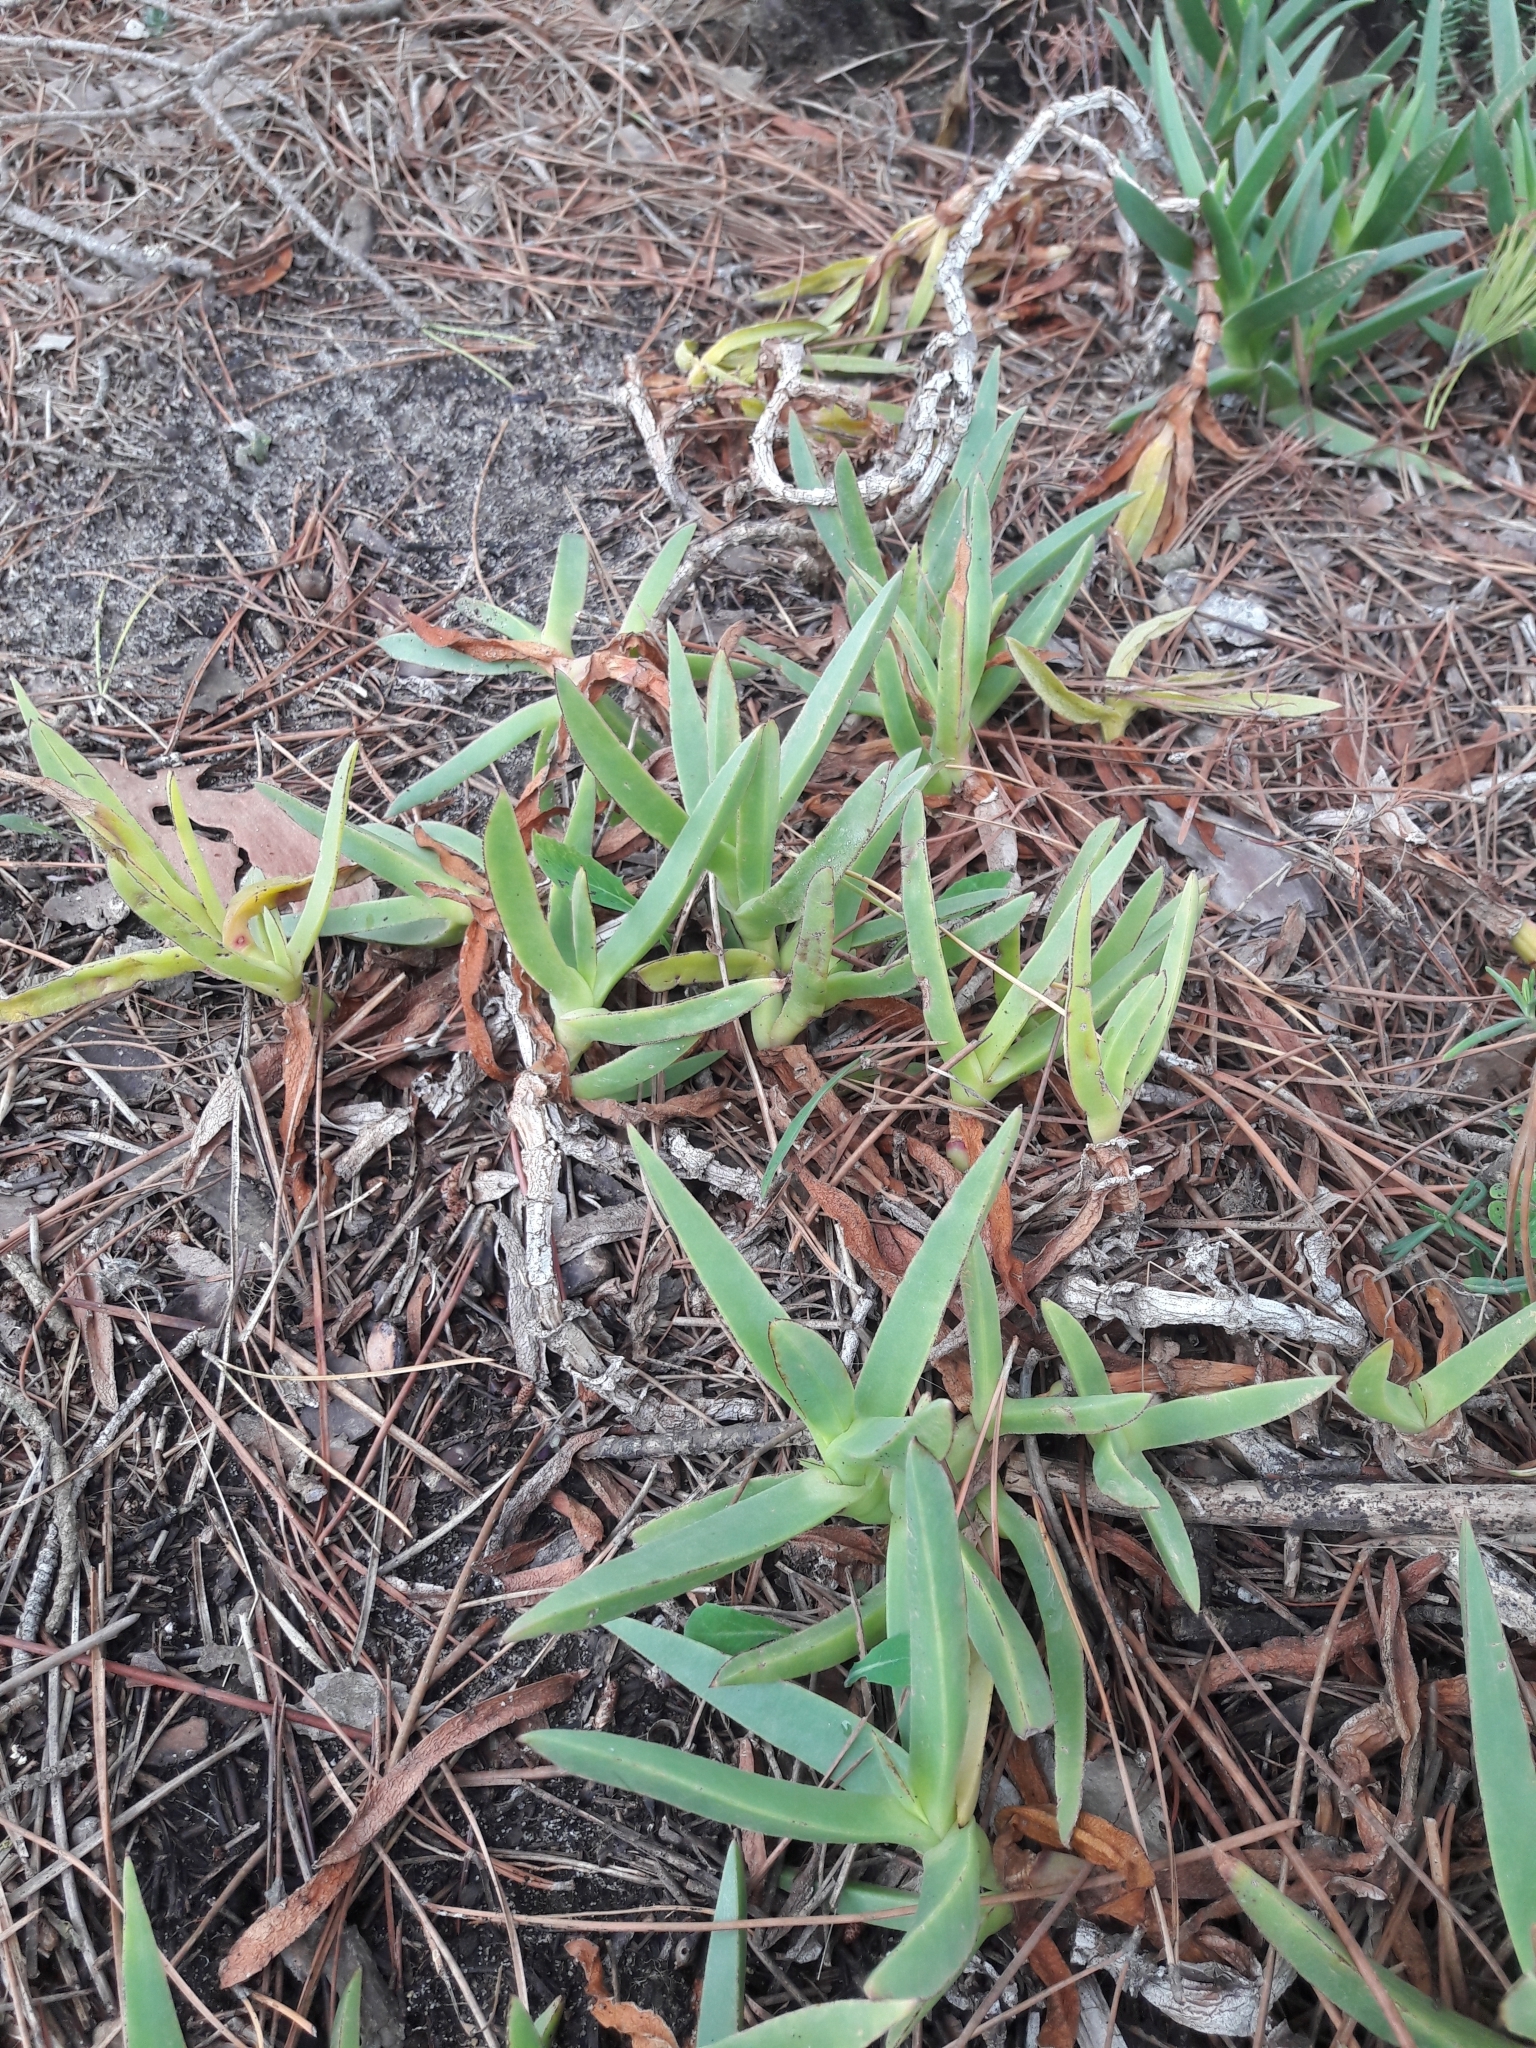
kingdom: Plantae
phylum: Tracheophyta
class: Magnoliopsida
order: Caryophyllales
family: Aizoaceae
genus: Carpobrotus
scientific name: Carpobrotus edulis
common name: Hottentot-fig
